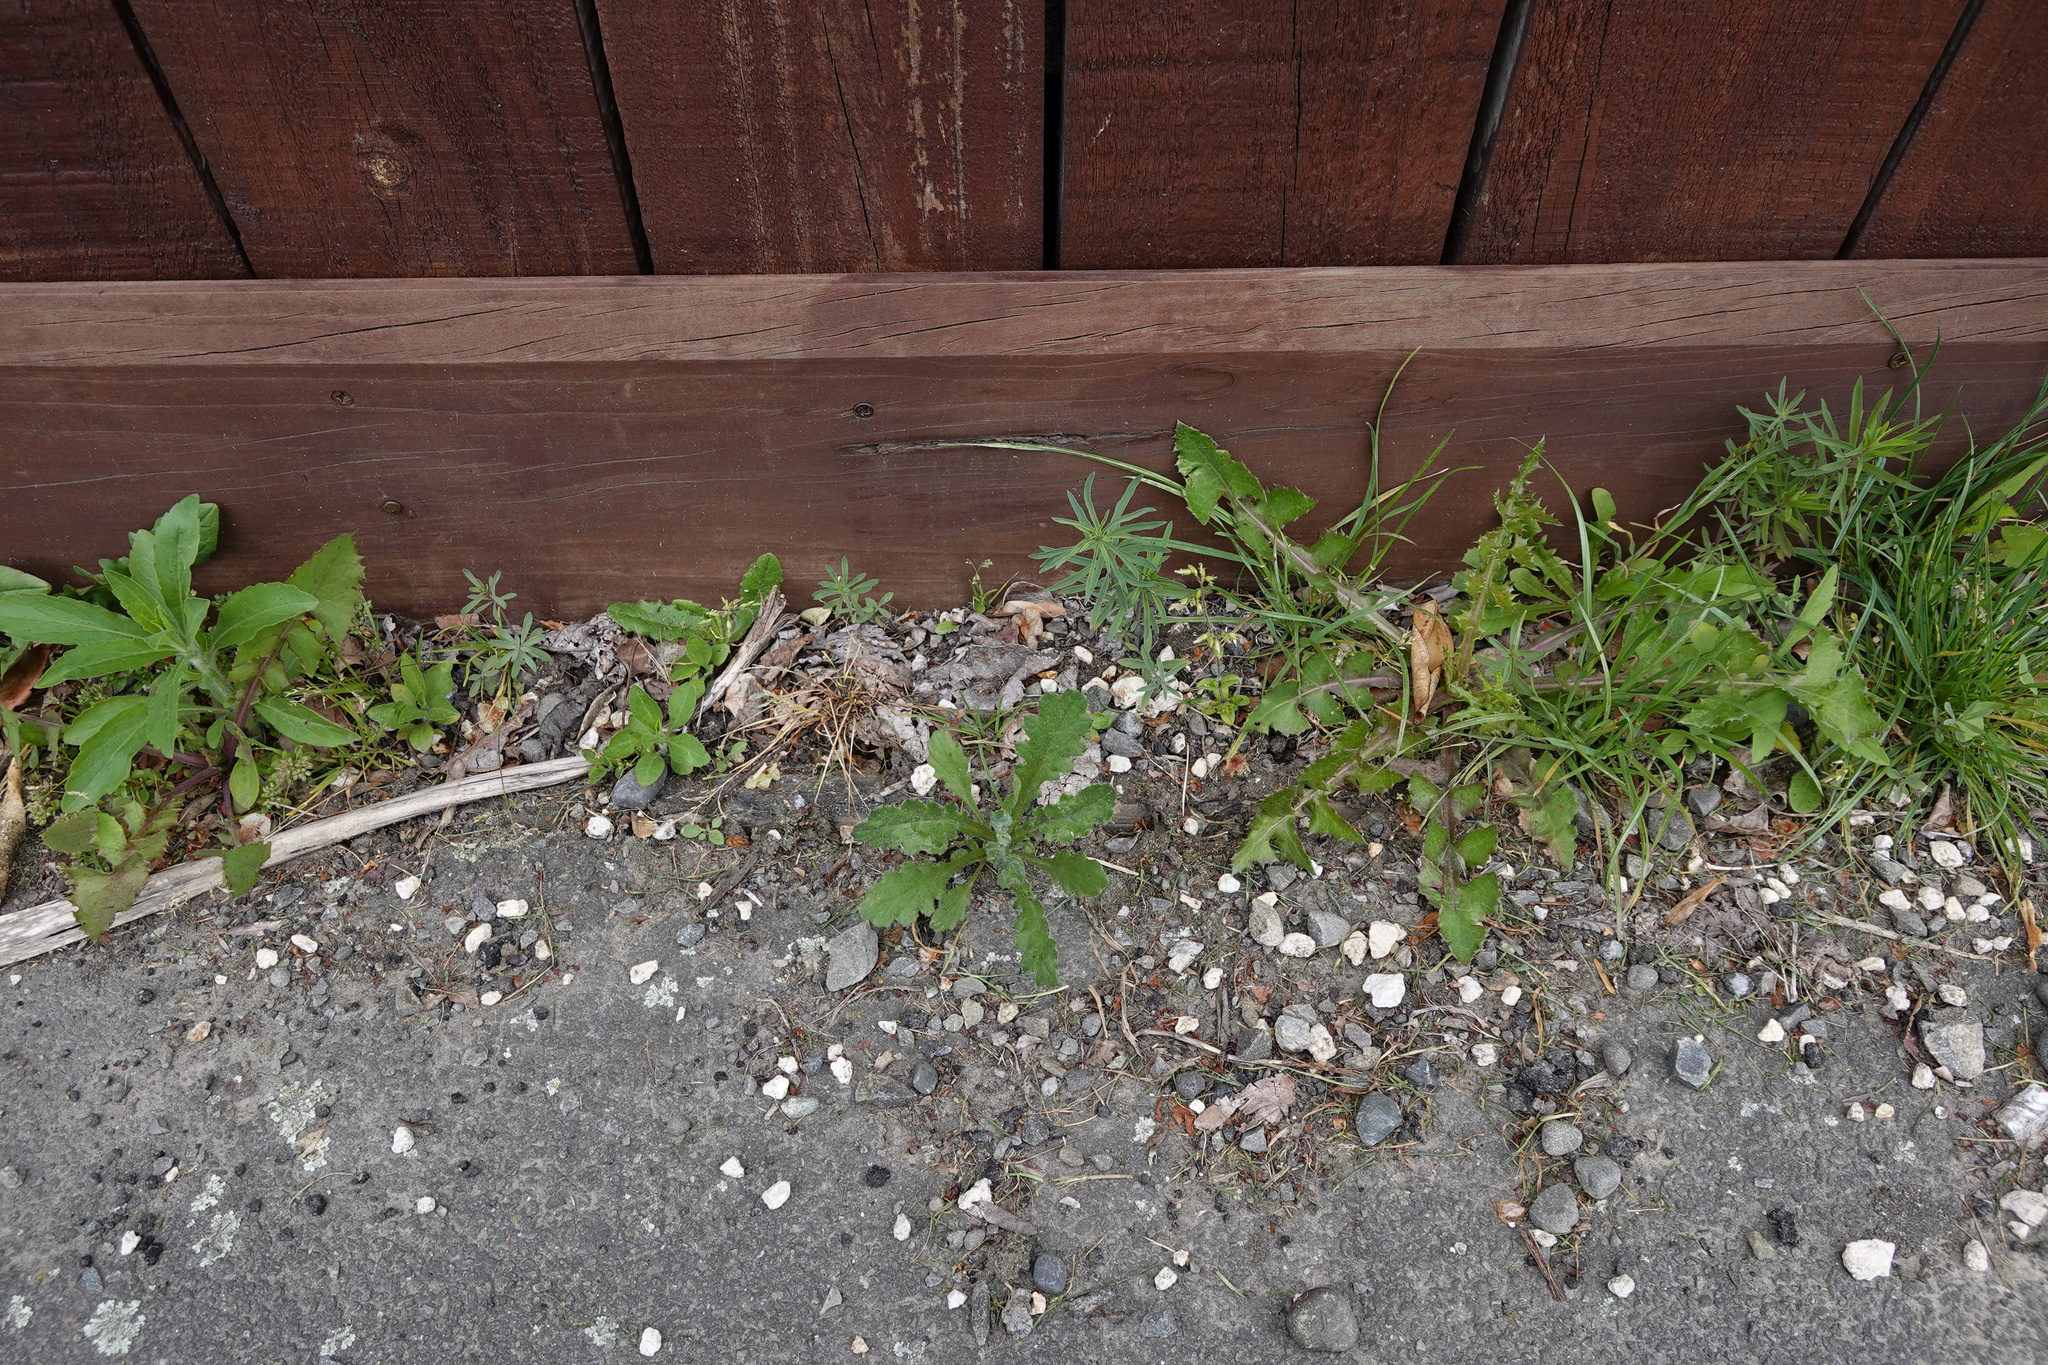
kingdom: Plantae
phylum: Tracheophyta
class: Magnoliopsida
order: Asterales
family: Asteraceae
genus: Senecio
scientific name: Senecio glomeratus
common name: Cutleaf burnweed
